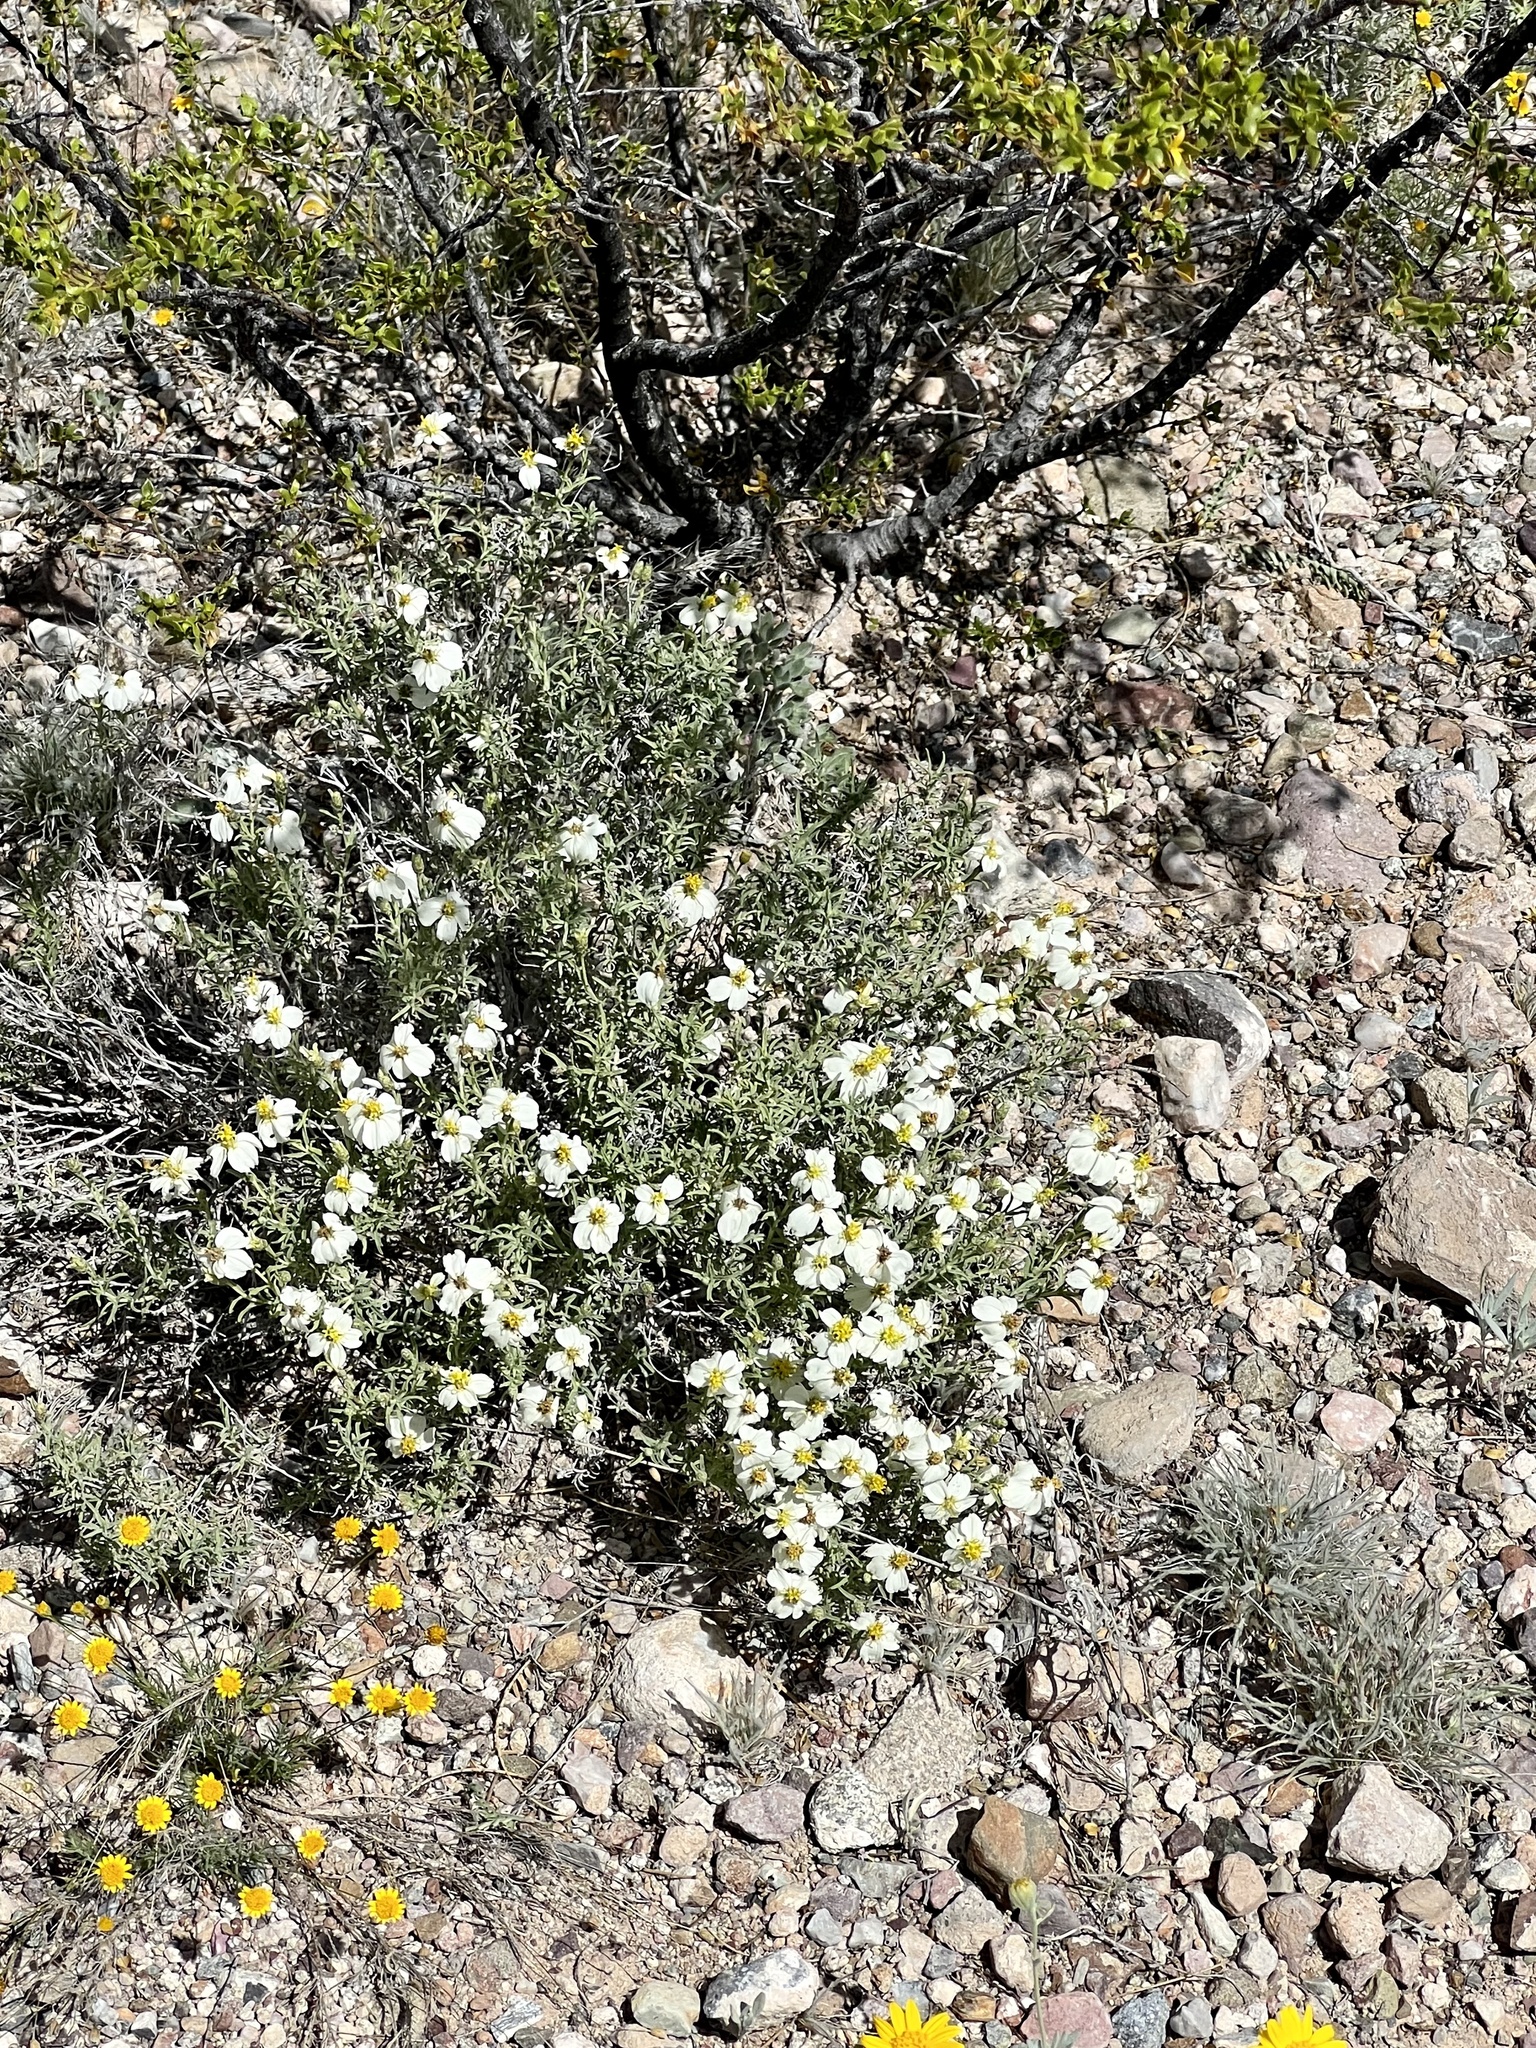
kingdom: Plantae
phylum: Tracheophyta
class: Magnoliopsida
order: Asterales
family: Asteraceae
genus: Zinnia
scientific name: Zinnia acerosa
